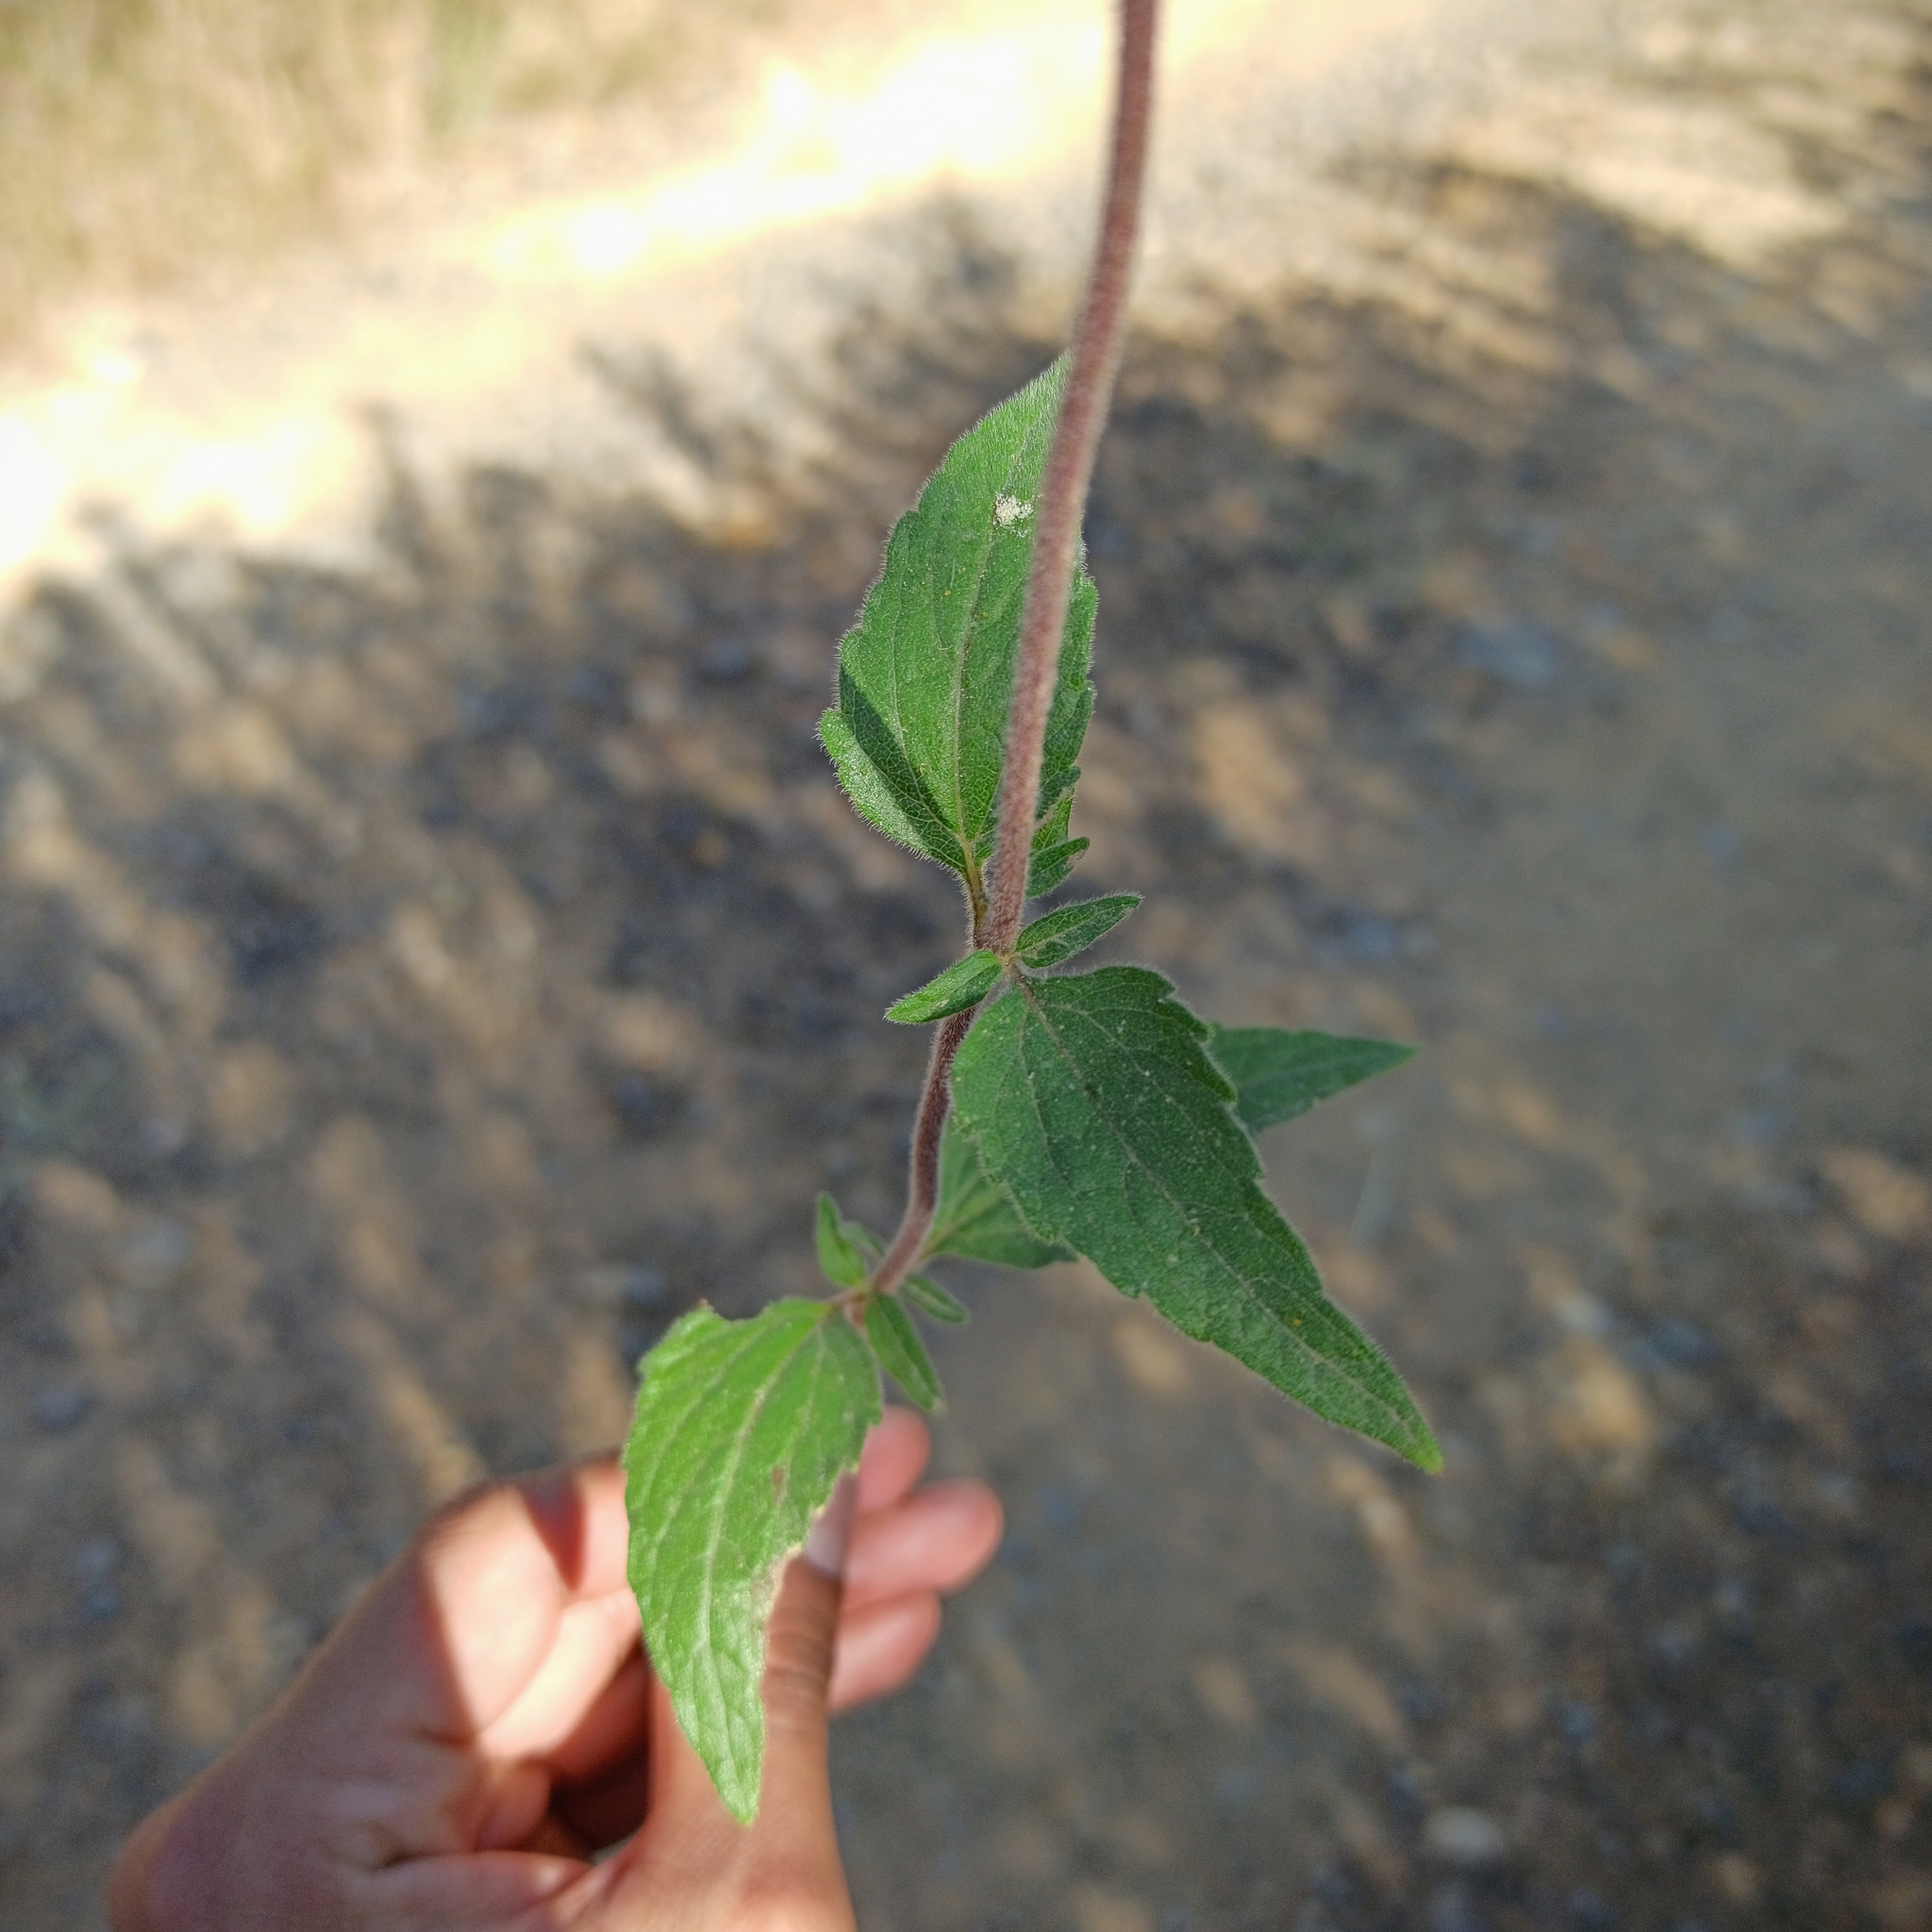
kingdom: Plantae
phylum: Tracheophyta
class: Magnoliopsida
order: Asterales
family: Asteraceae
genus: Ageratum
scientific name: Ageratum corymbosum
